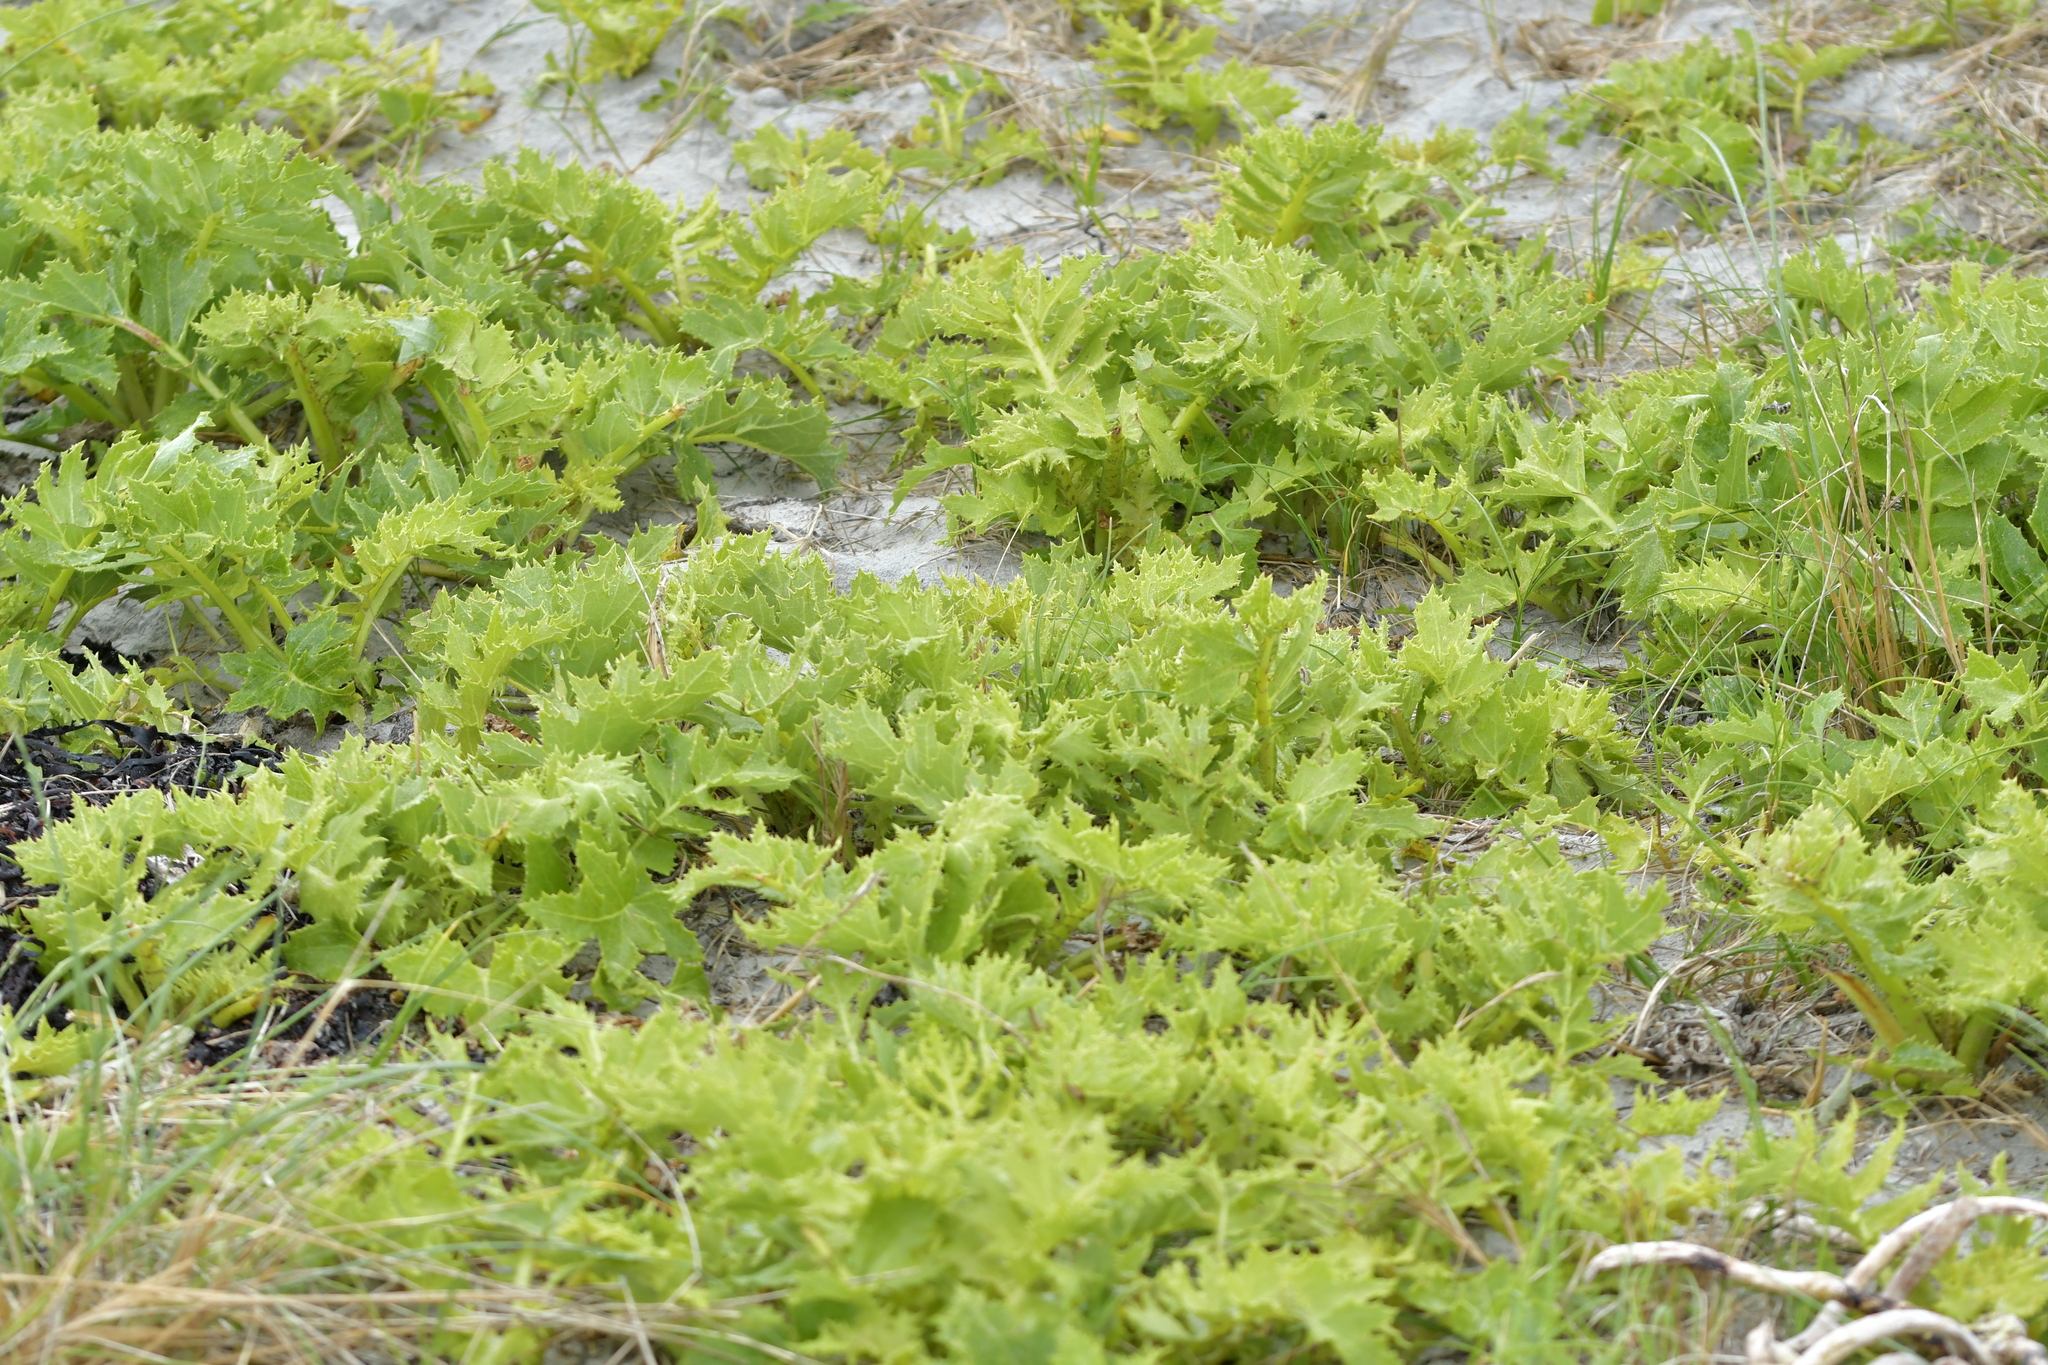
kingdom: Plantae
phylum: Tracheophyta
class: Magnoliopsida
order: Asterales
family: Asteraceae
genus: Sonchus
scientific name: Sonchus grandifolius
